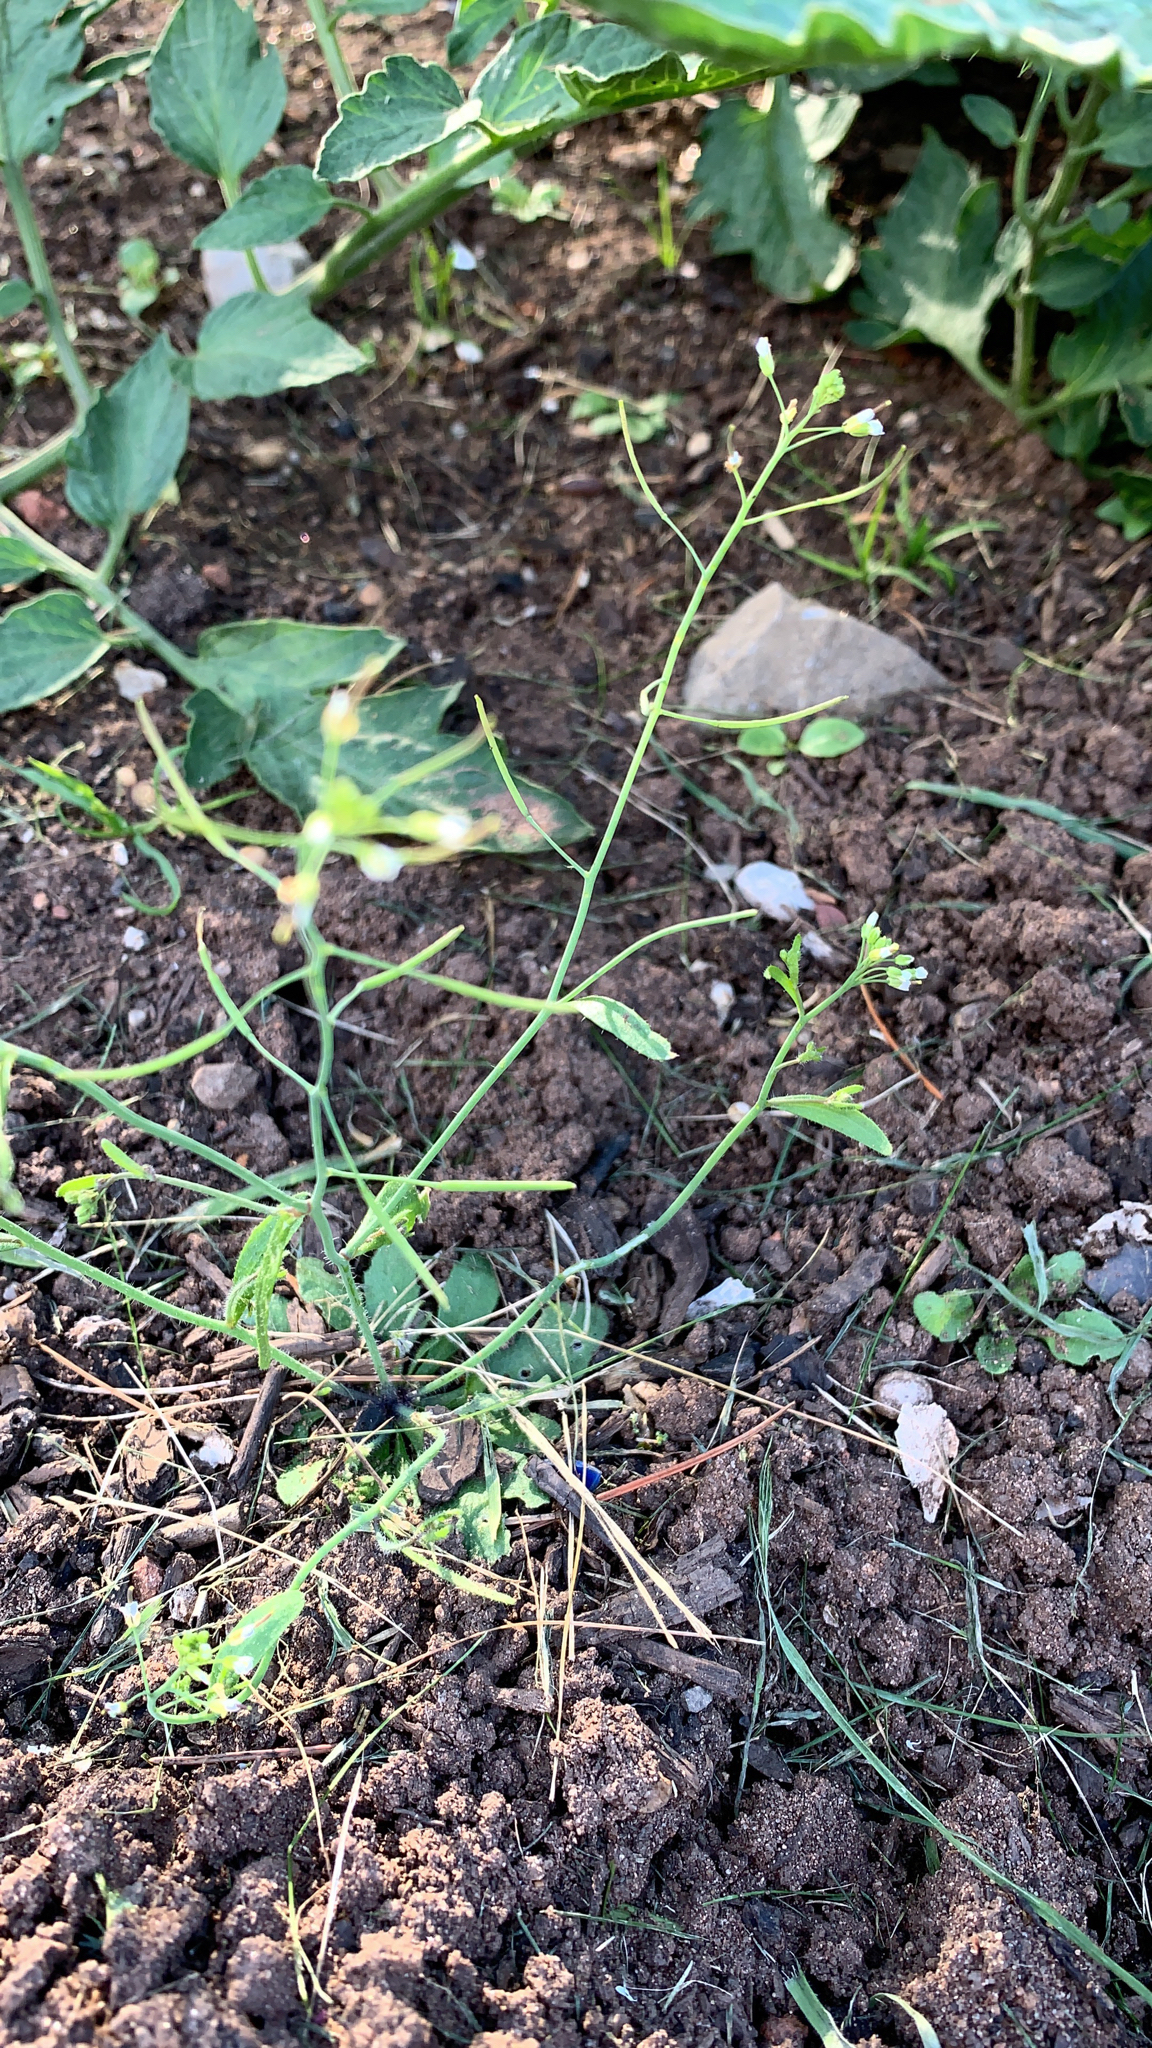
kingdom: Plantae
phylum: Tracheophyta
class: Magnoliopsida
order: Brassicales
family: Brassicaceae
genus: Arabidopsis
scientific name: Arabidopsis thaliana
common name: Thale cress
